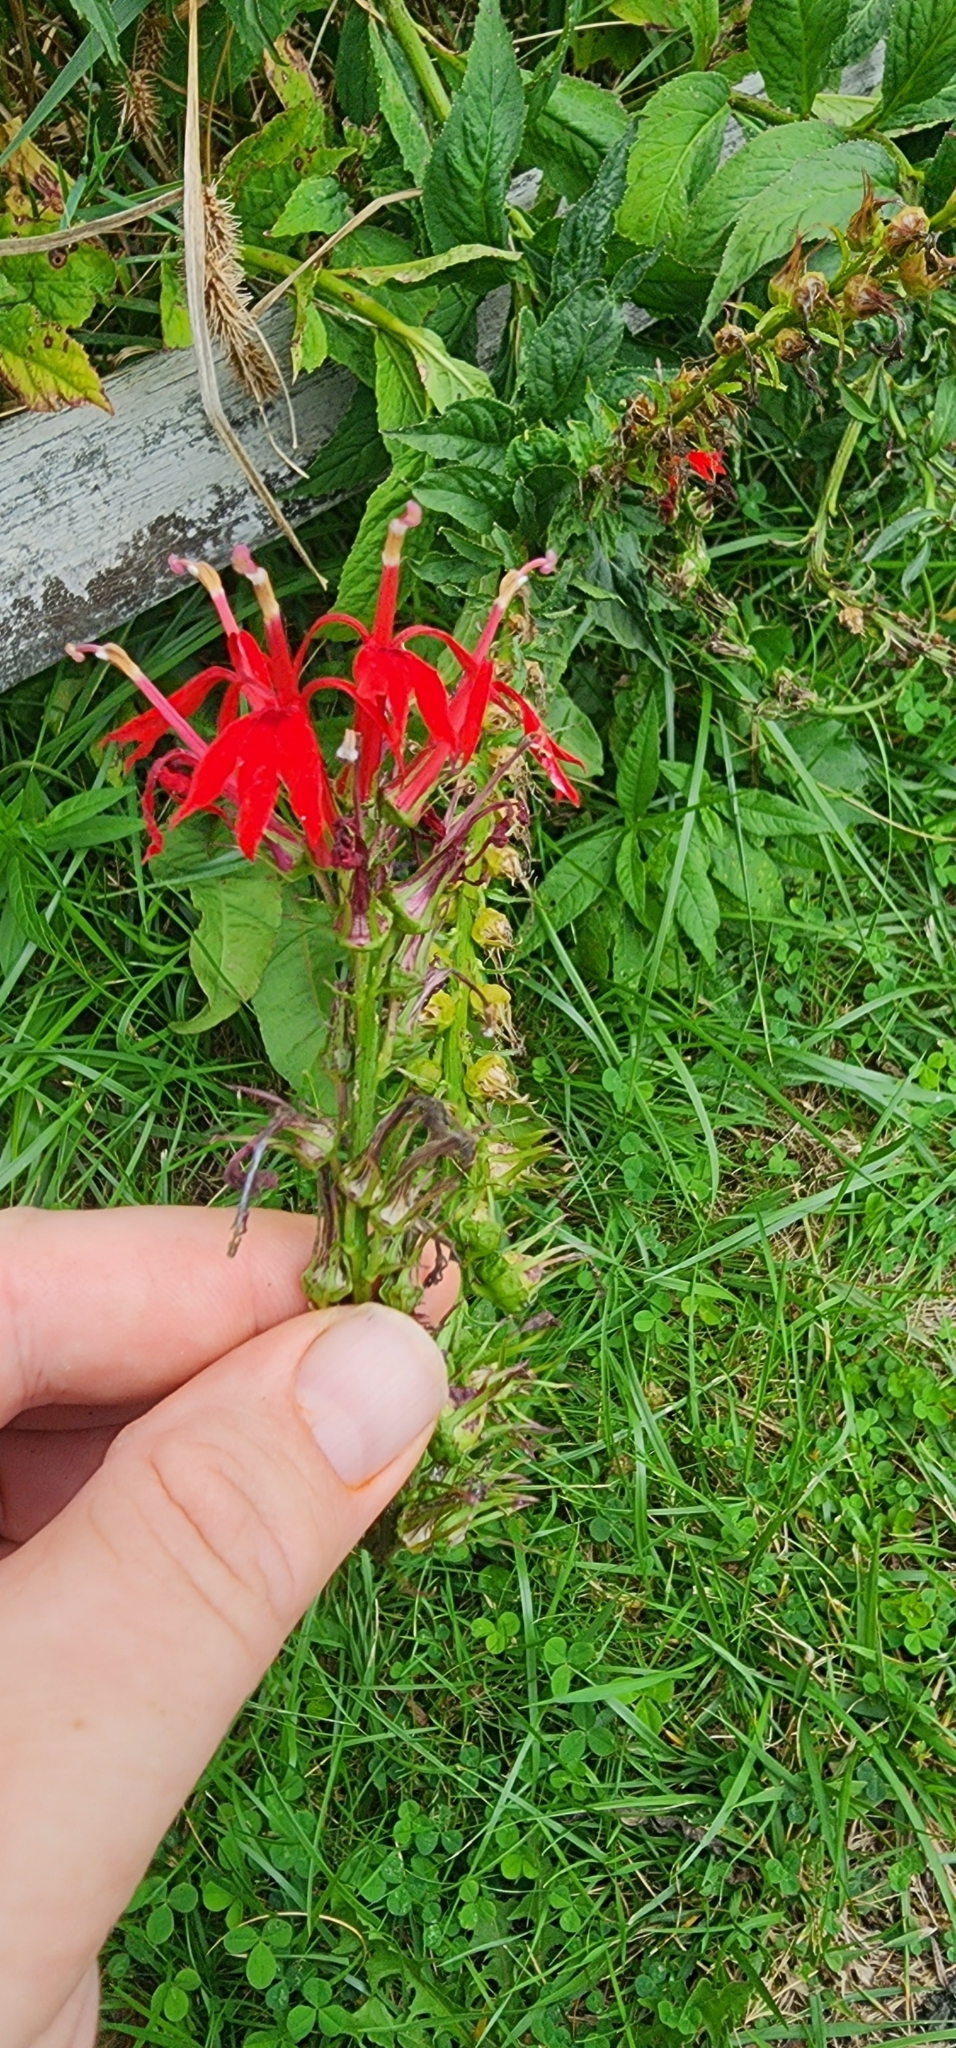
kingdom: Plantae
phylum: Tracheophyta
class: Magnoliopsida
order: Asterales
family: Campanulaceae
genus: Lobelia
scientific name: Lobelia cardinalis
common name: Cardinal flower
